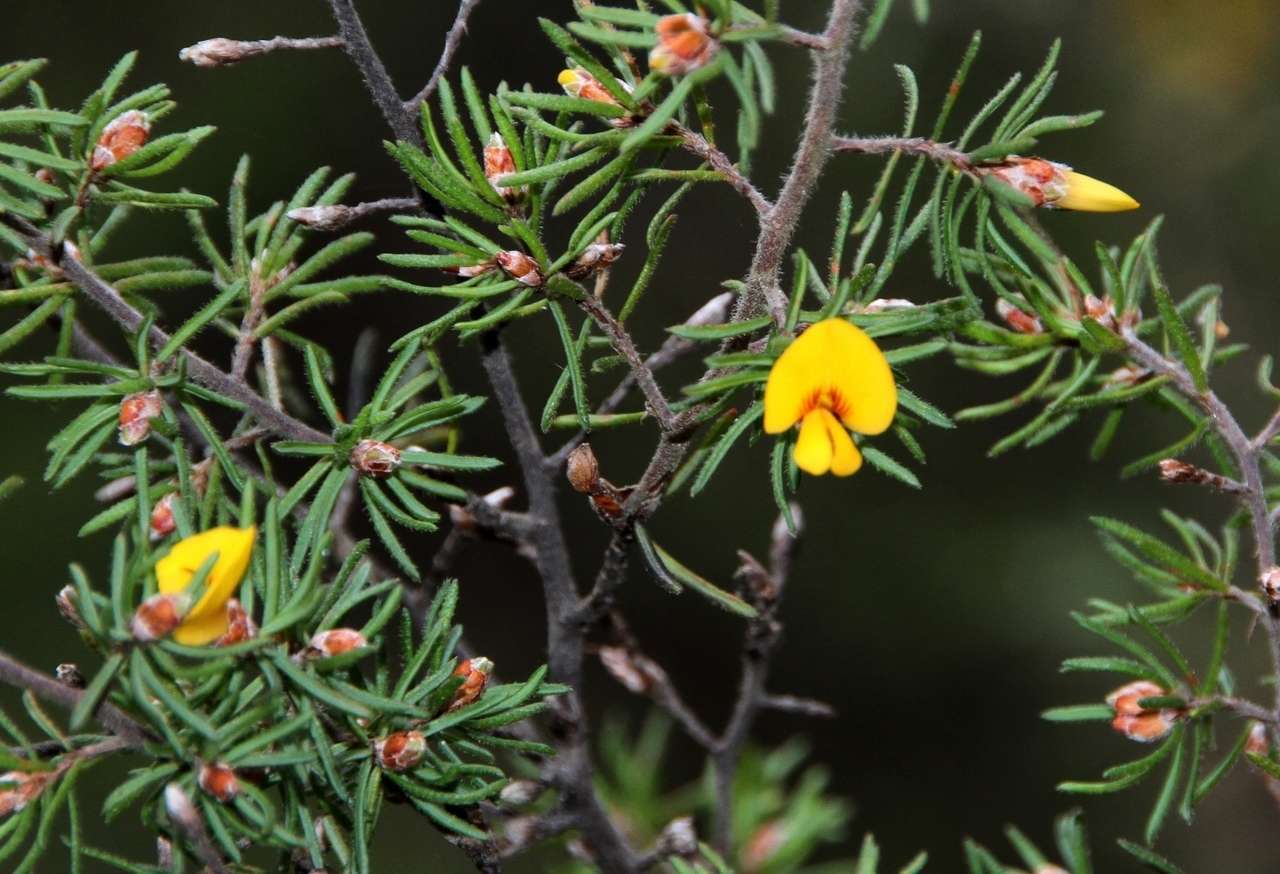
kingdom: Plantae
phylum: Tracheophyta
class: Magnoliopsida
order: Fabales
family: Fabaceae
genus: Pultenaea
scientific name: Pultenaea mollis
